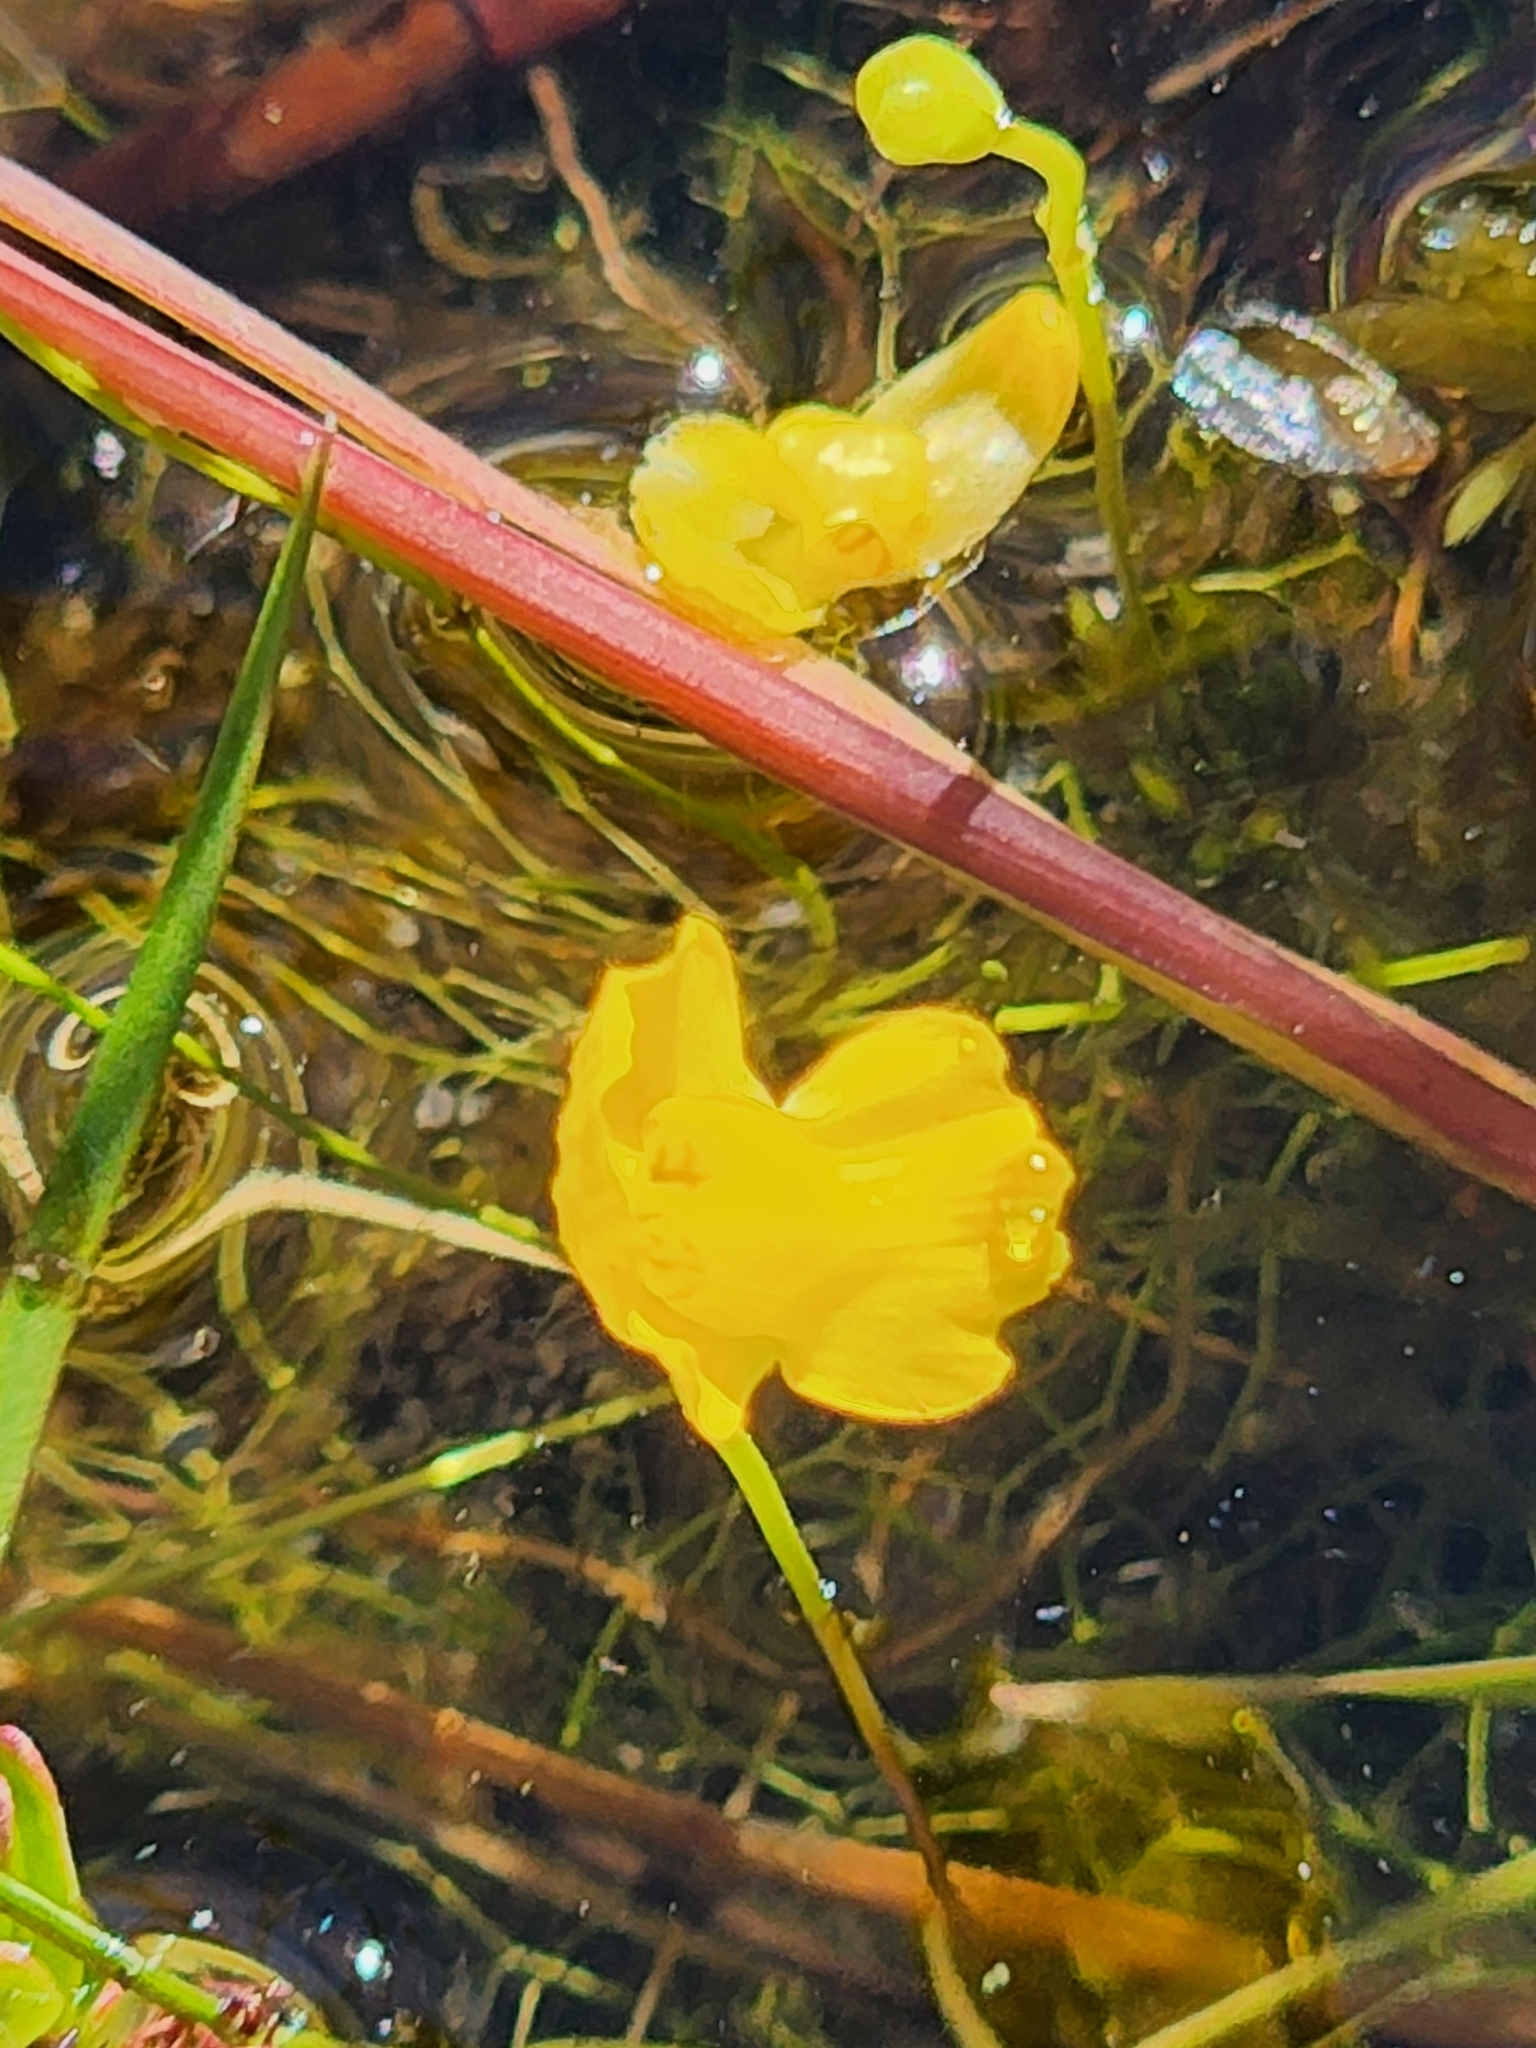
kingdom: Plantae
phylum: Tracheophyta
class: Magnoliopsida
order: Lamiales
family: Lentibulariaceae
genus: Utricularia
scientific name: Utricularia gibba
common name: Humped bladderwort
